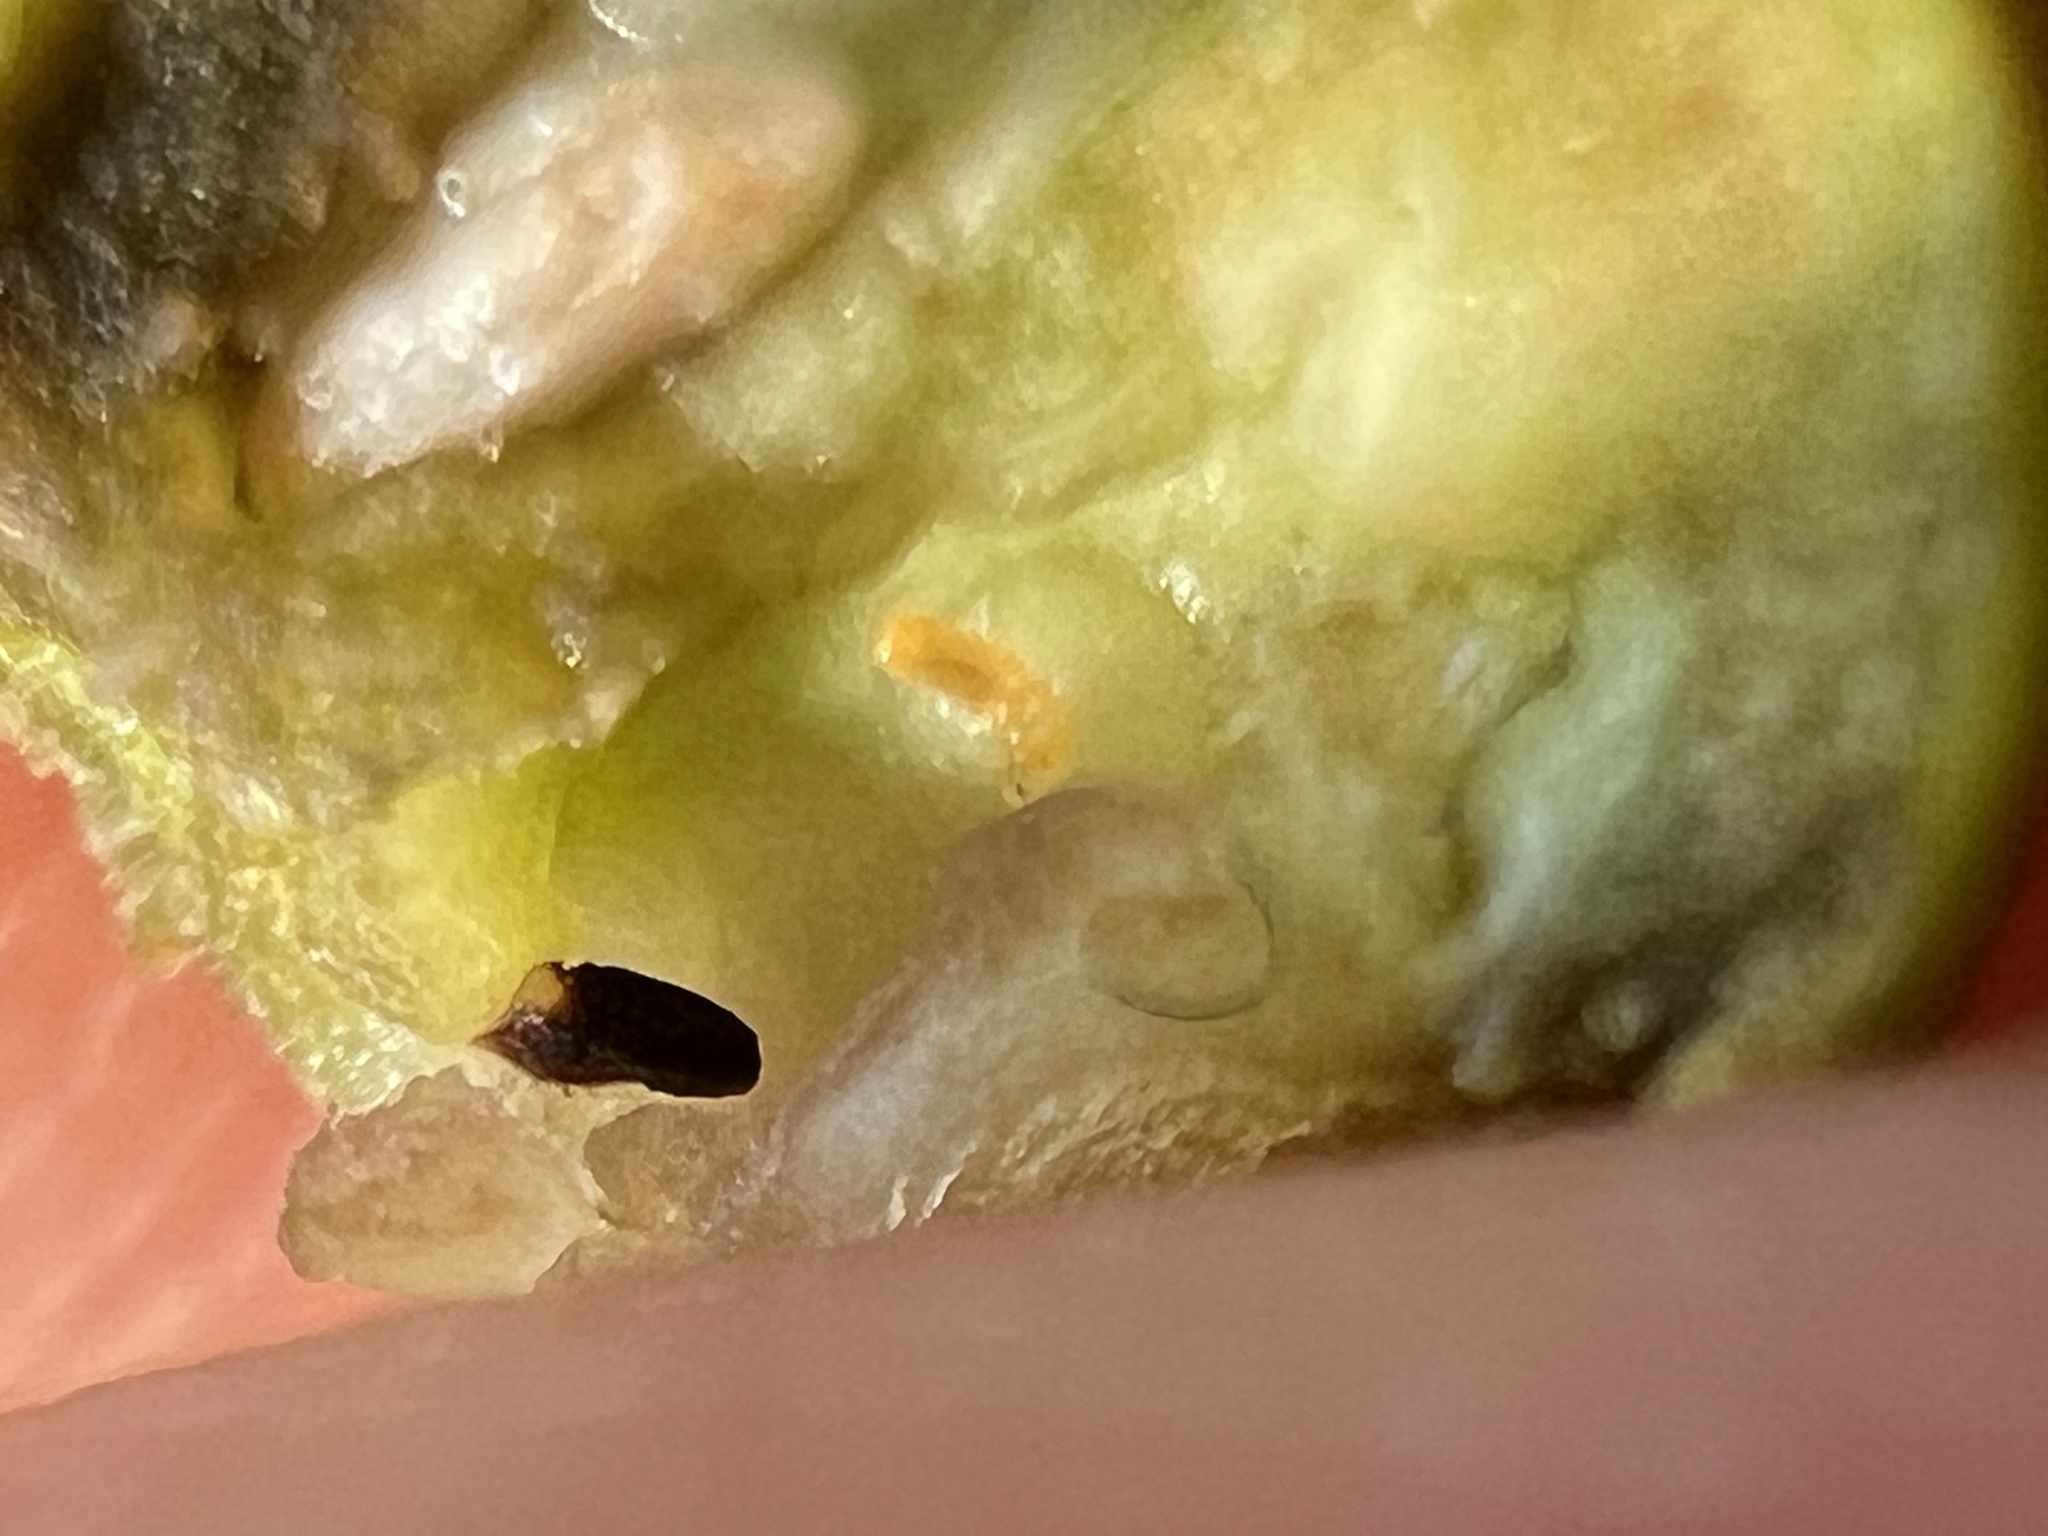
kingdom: Animalia
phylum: Arthropoda
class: Insecta
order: Diptera
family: Cecidomyiidae
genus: Asphondylia
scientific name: Asphondylia ilicicola
